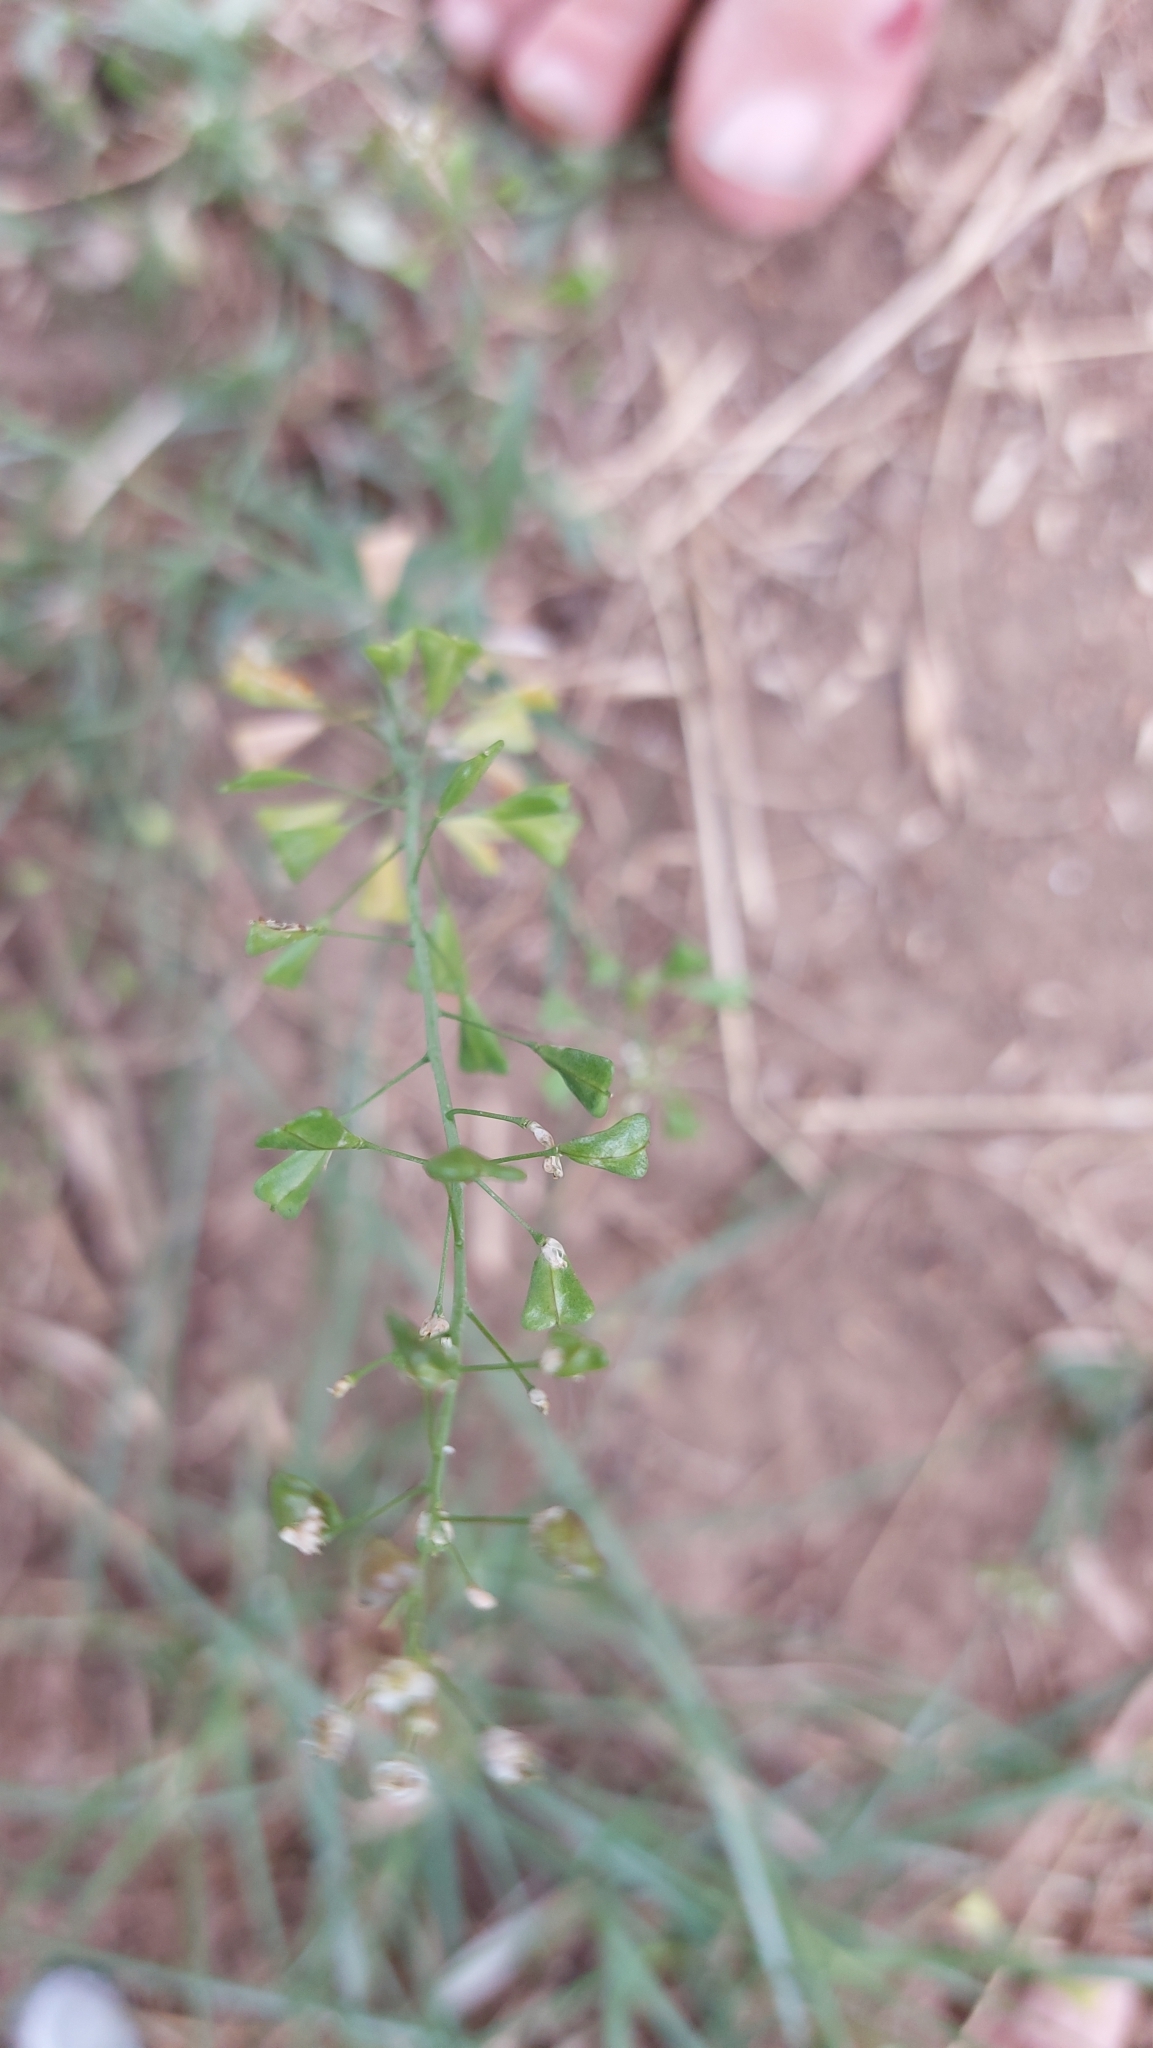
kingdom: Plantae
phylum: Tracheophyta
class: Magnoliopsida
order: Brassicales
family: Brassicaceae
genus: Capsella
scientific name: Capsella bursa-pastoris
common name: Shepherd's purse
